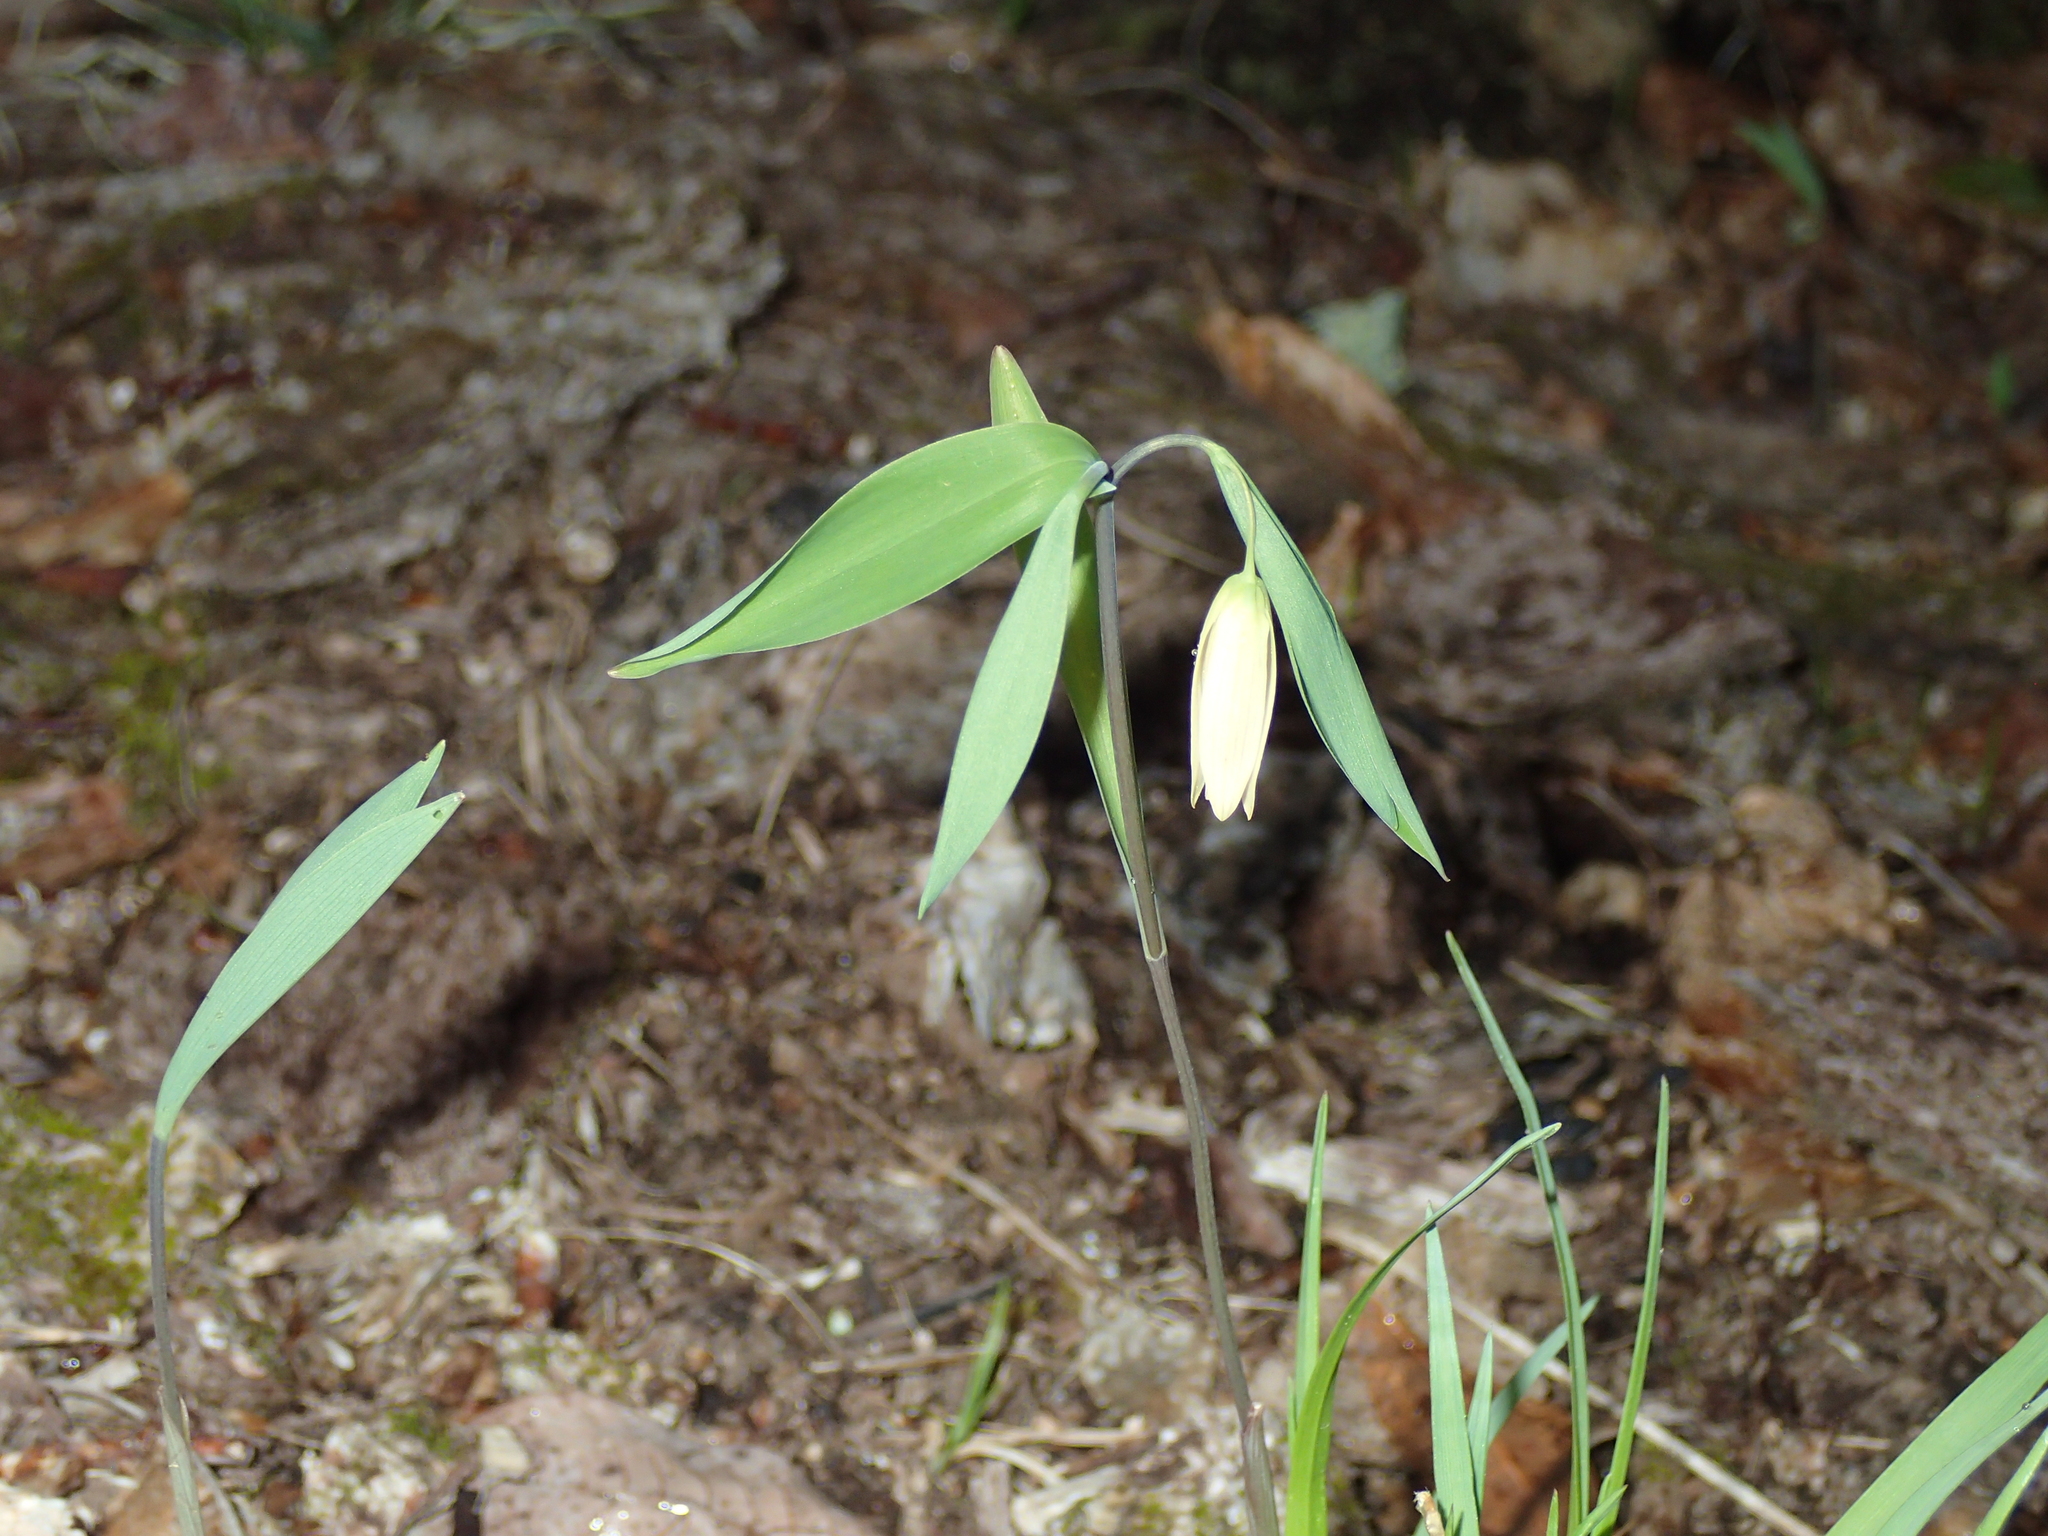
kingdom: Plantae
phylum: Tracheophyta
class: Liliopsida
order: Liliales
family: Colchicaceae
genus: Uvularia
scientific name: Uvularia sessilifolia
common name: Straw-lily
